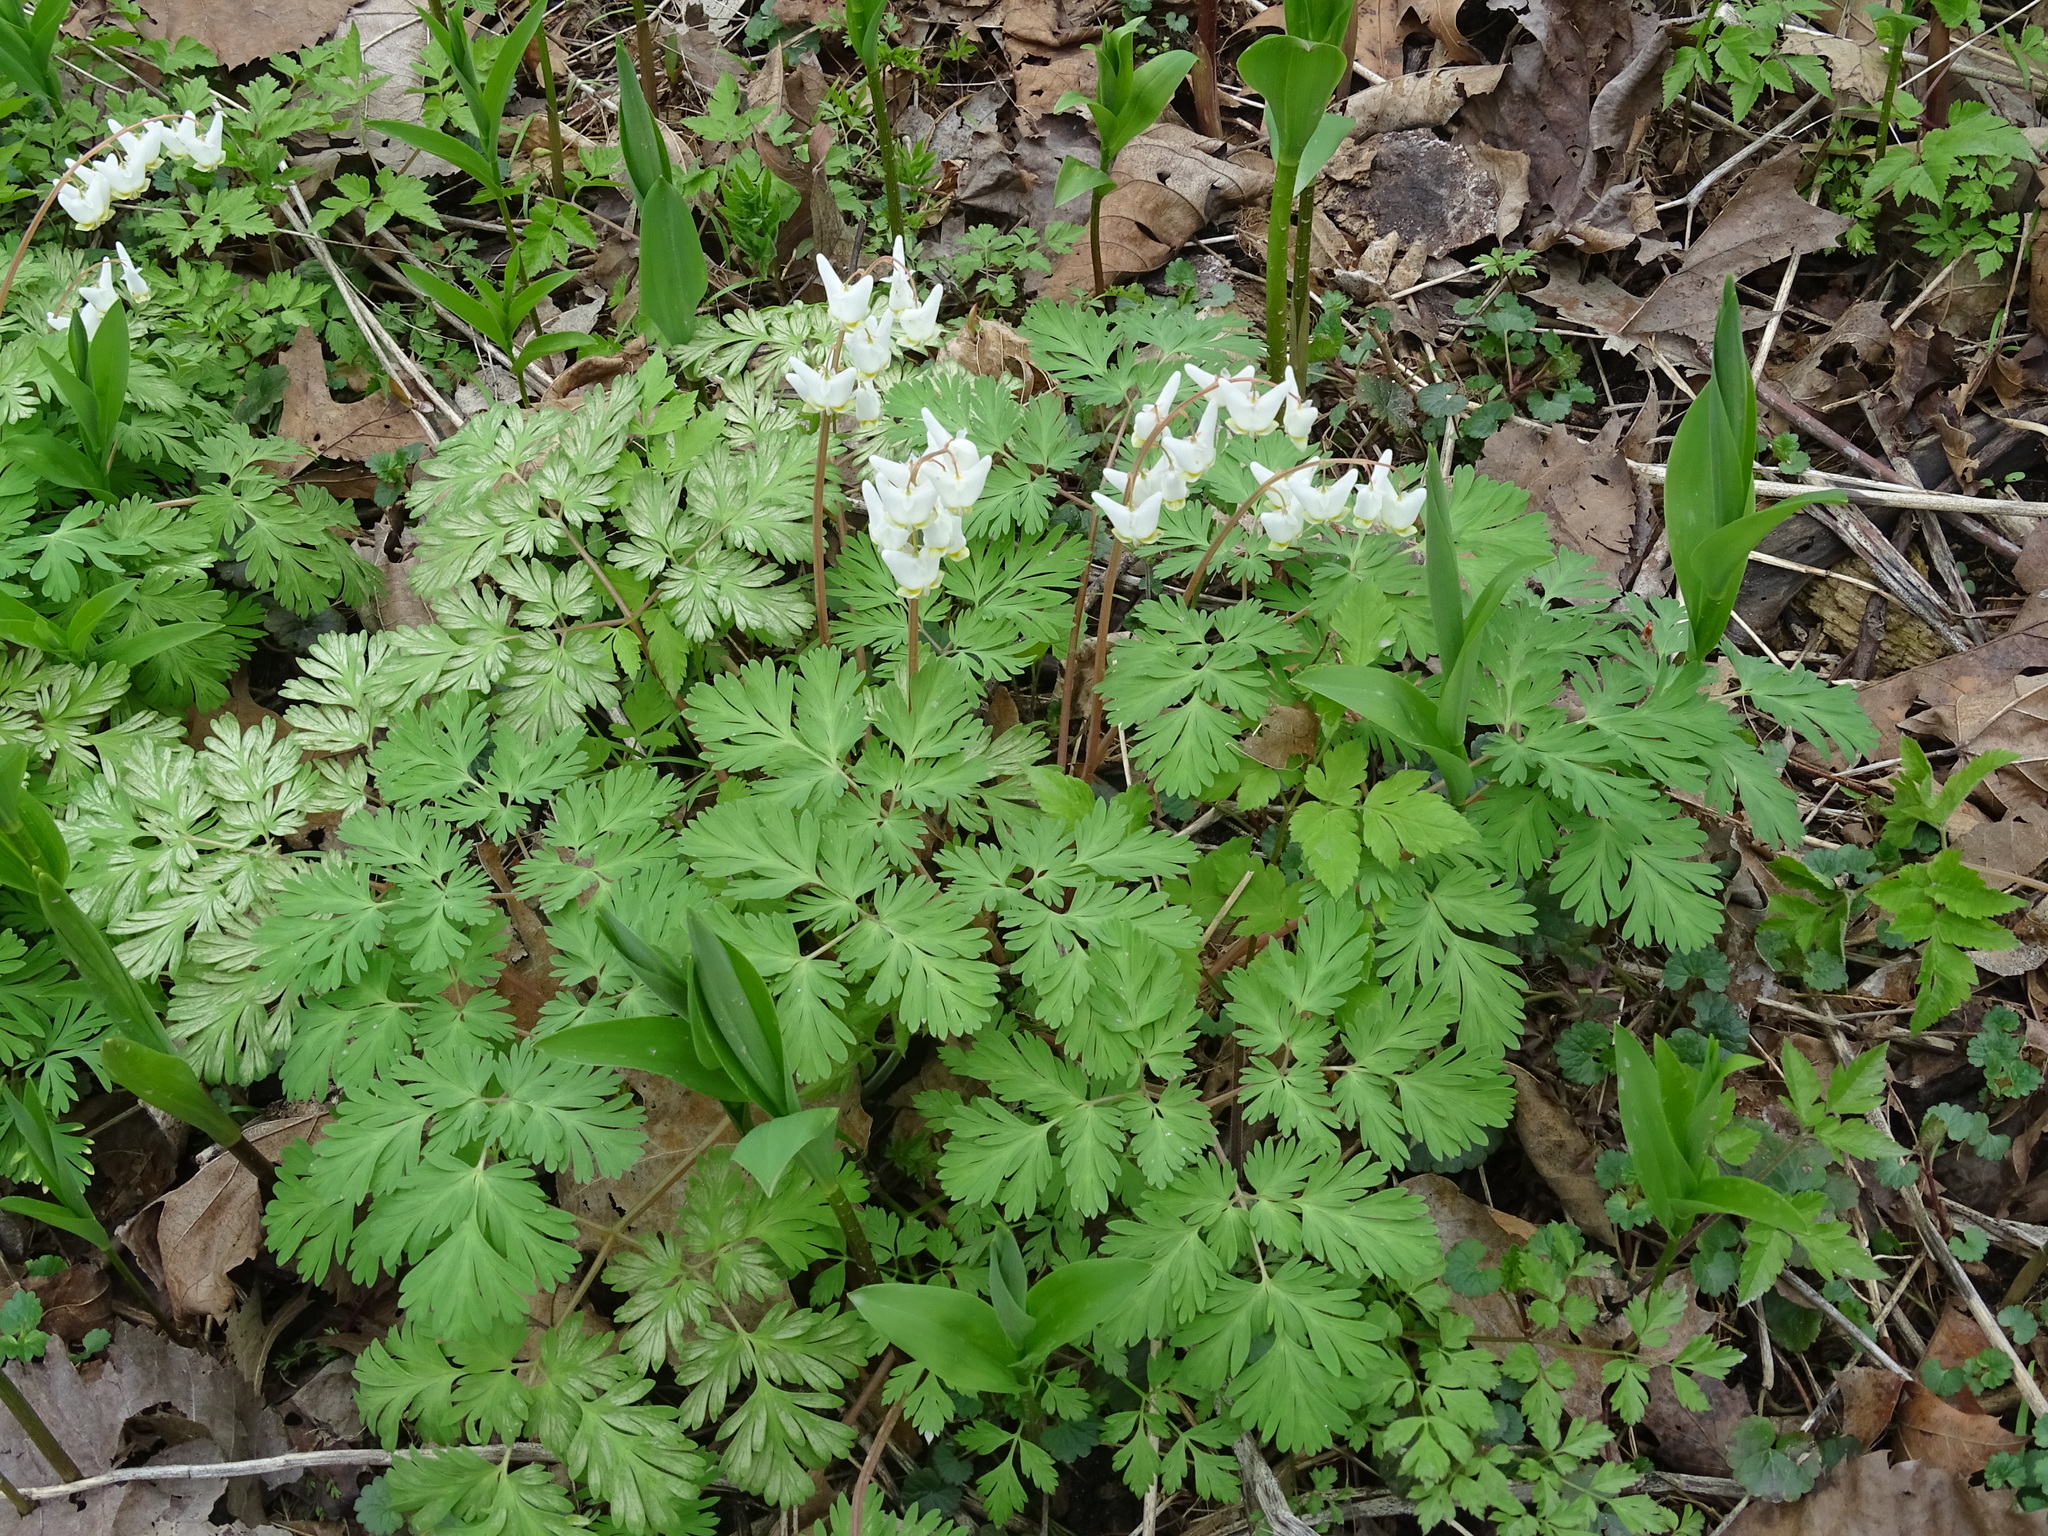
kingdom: Plantae
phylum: Tracheophyta
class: Magnoliopsida
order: Ranunculales
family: Papaveraceae
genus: Dicentra
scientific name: Dicentra cucullaria
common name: Dutchman's breeches
